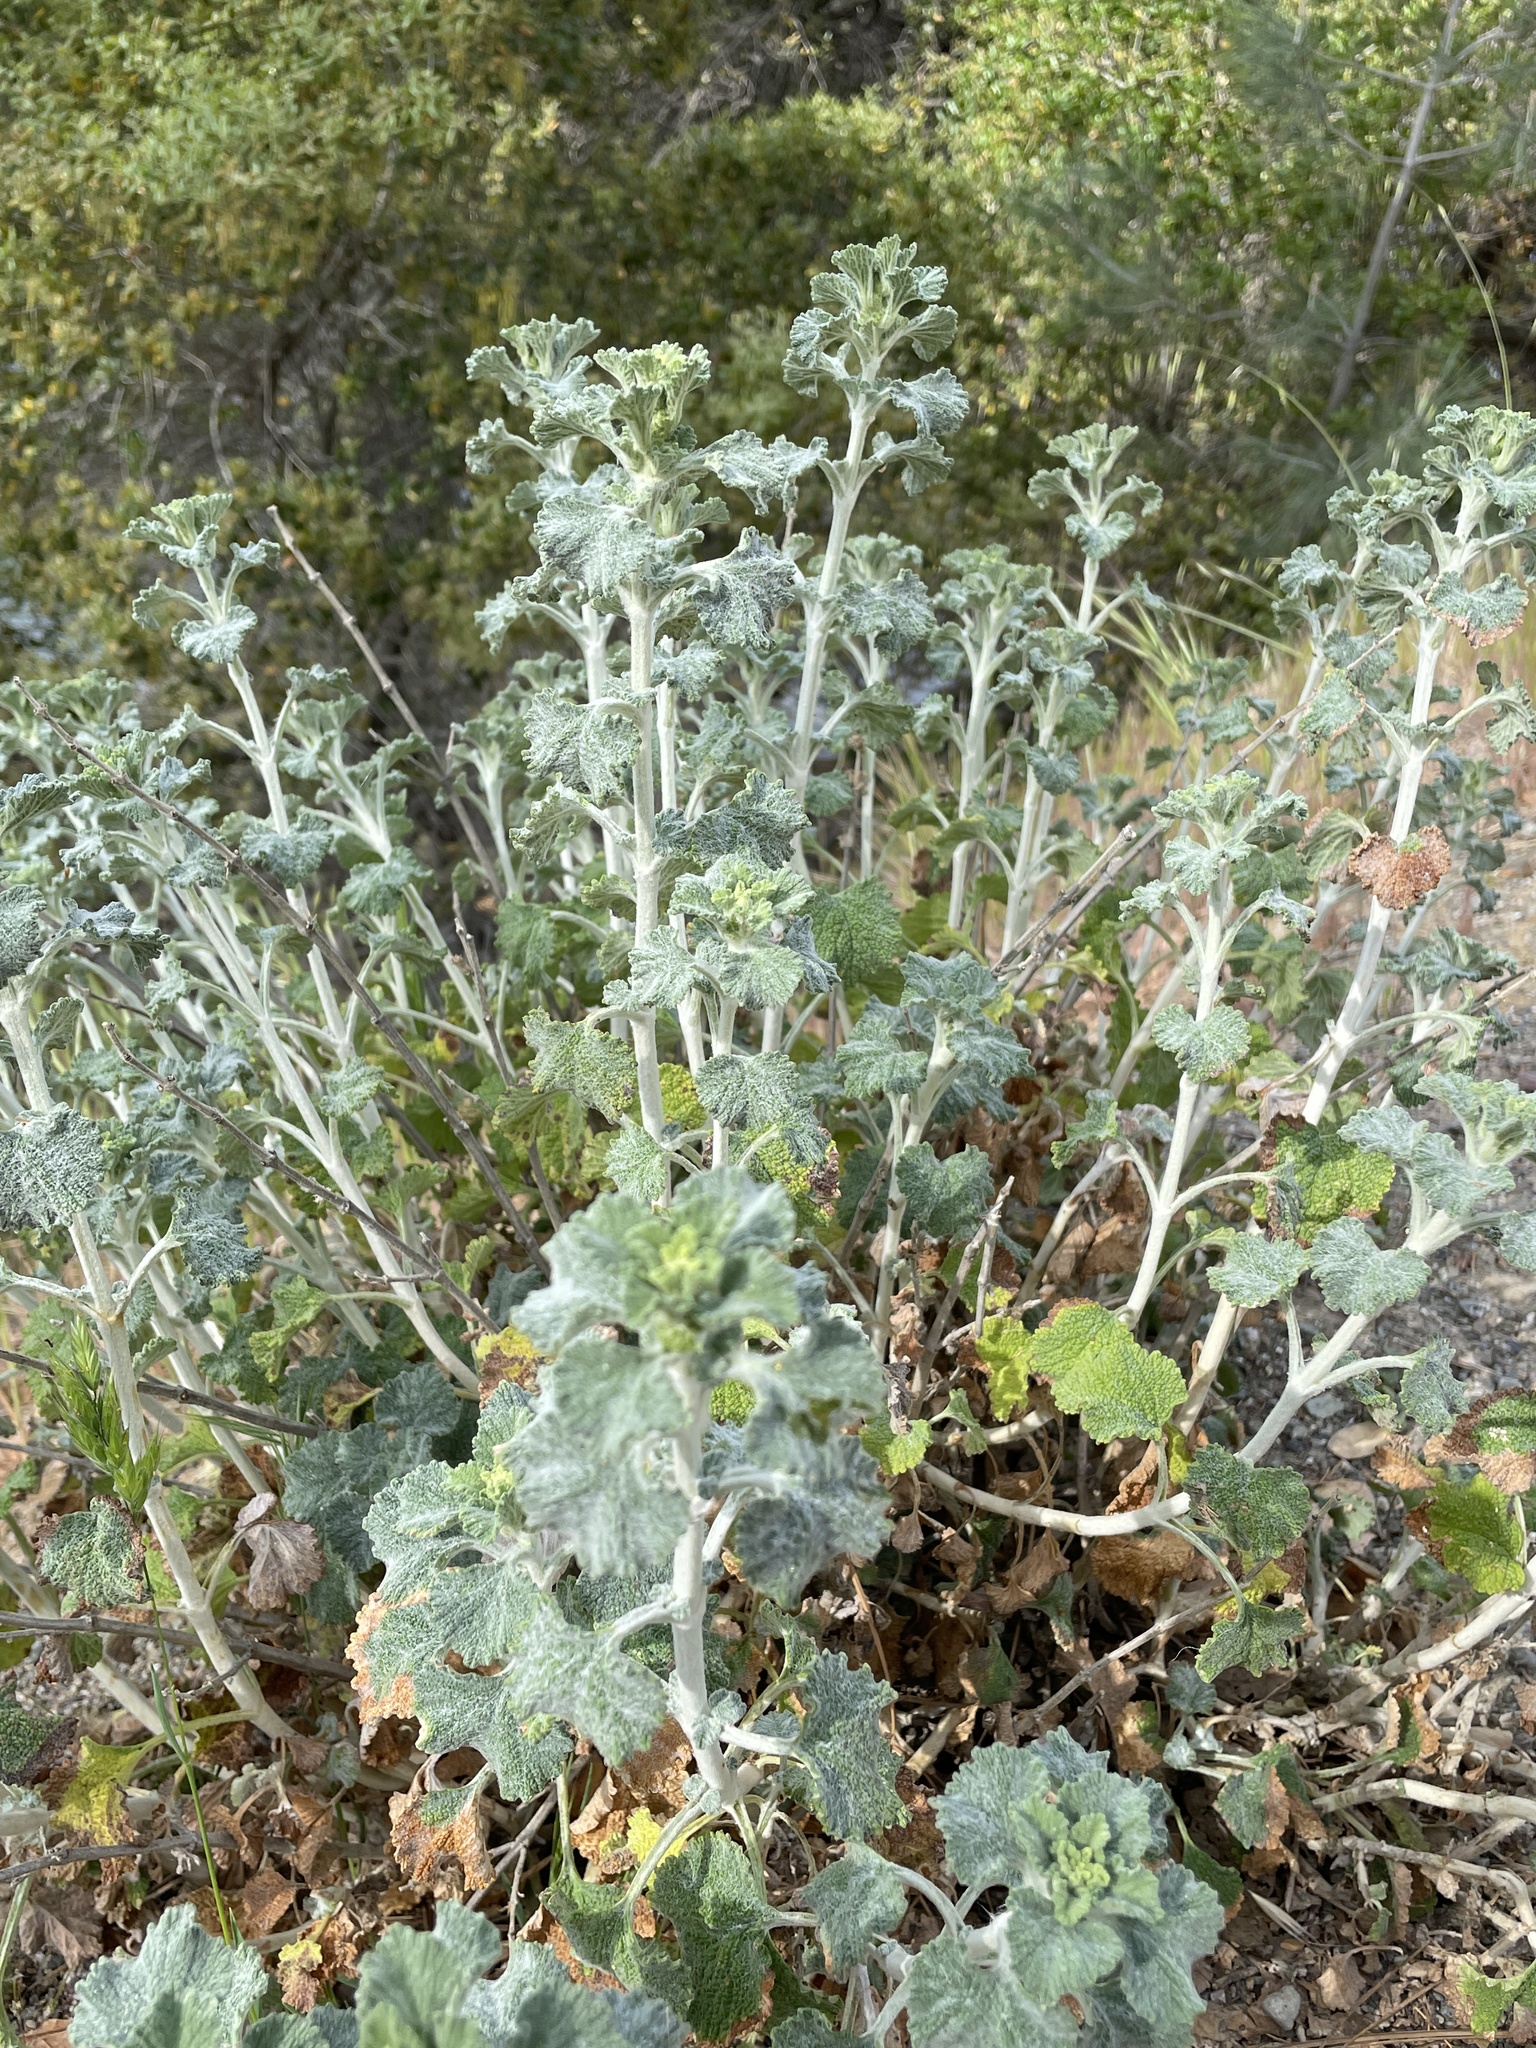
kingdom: Plantae
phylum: Tracheophyta
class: Magnoliopsida
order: Lamiales
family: Lamiaceae
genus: Marrubium
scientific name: Marrubium vulgare
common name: Horehound
